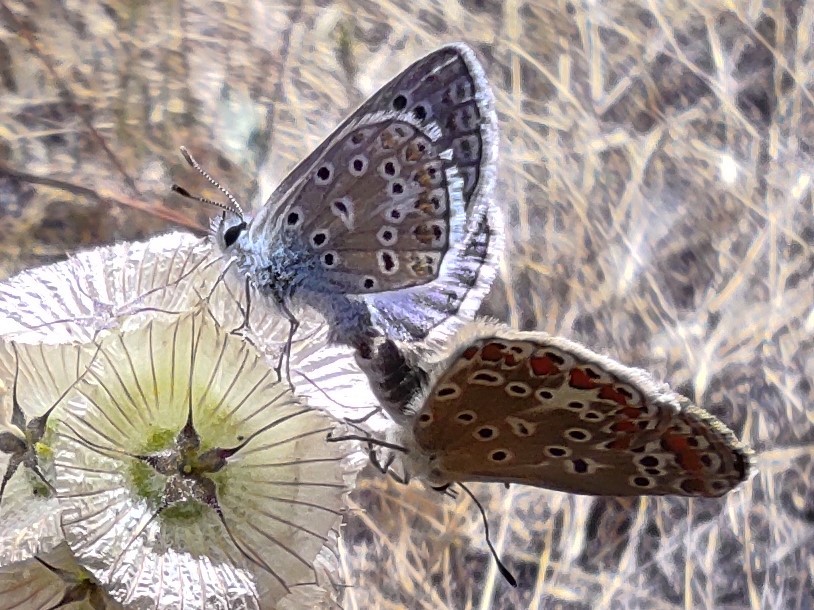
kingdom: Animalia
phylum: Arthropoda
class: Insecta
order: Lepidoptera
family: Lycaenidae
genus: Polyommatus
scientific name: Polyommatus icarus
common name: Common blue
